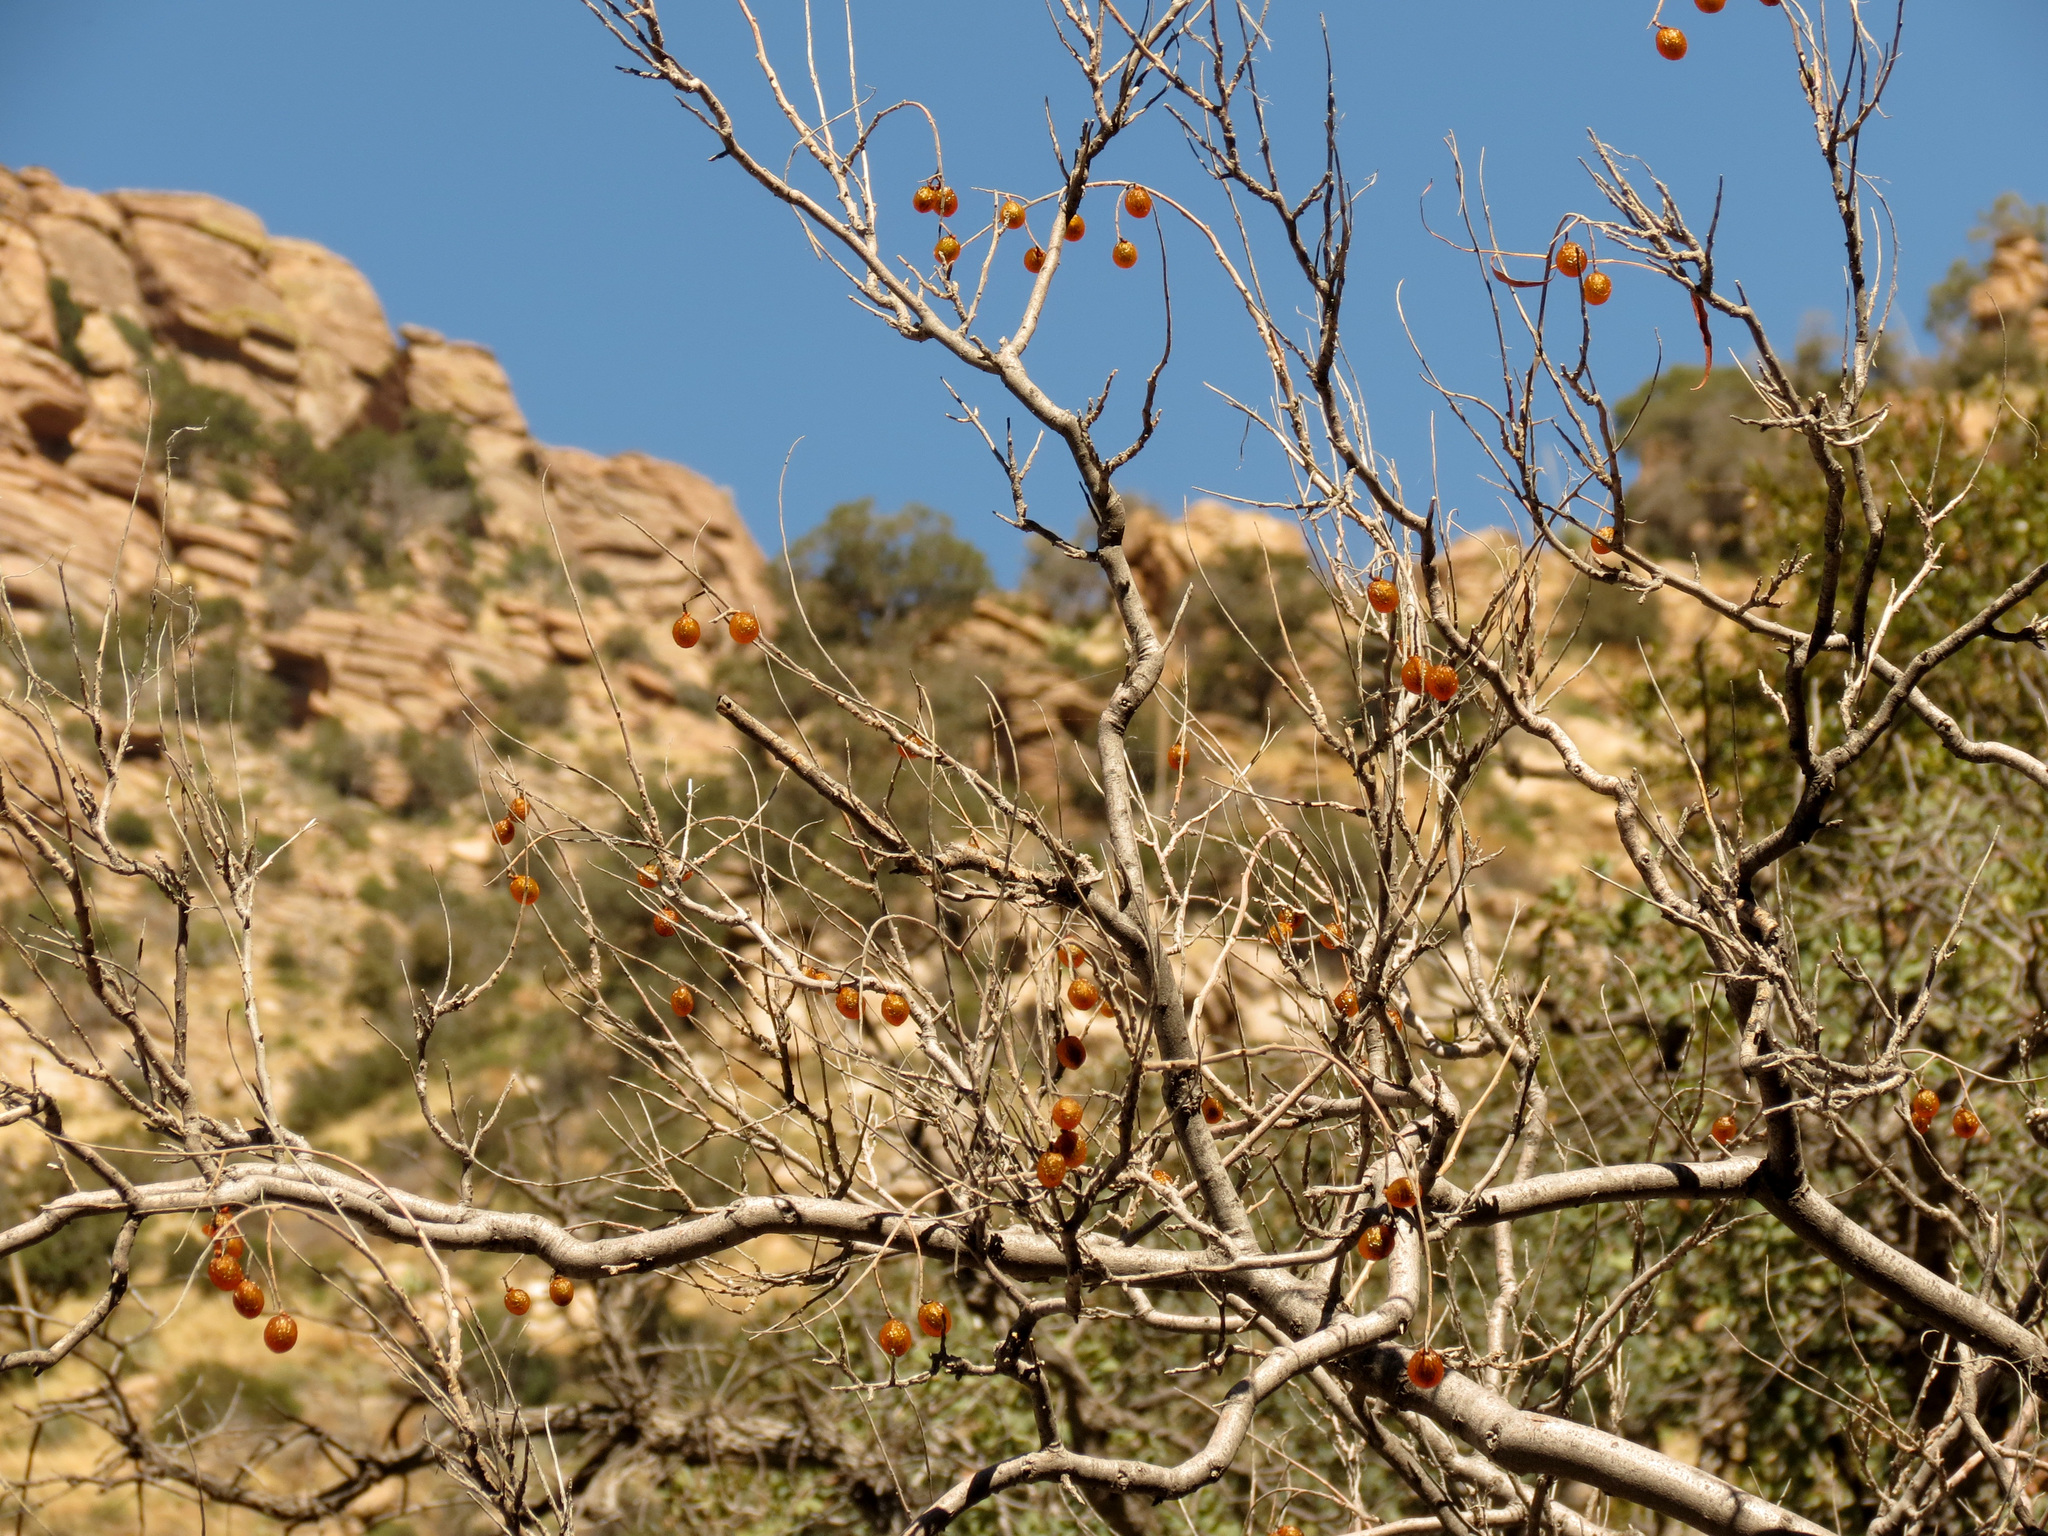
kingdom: Plantae
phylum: Tracheophyta
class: Magnoliopsida
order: Sapindales
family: Sapindaceae
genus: Sapindus
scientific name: Sapindus drummondii
